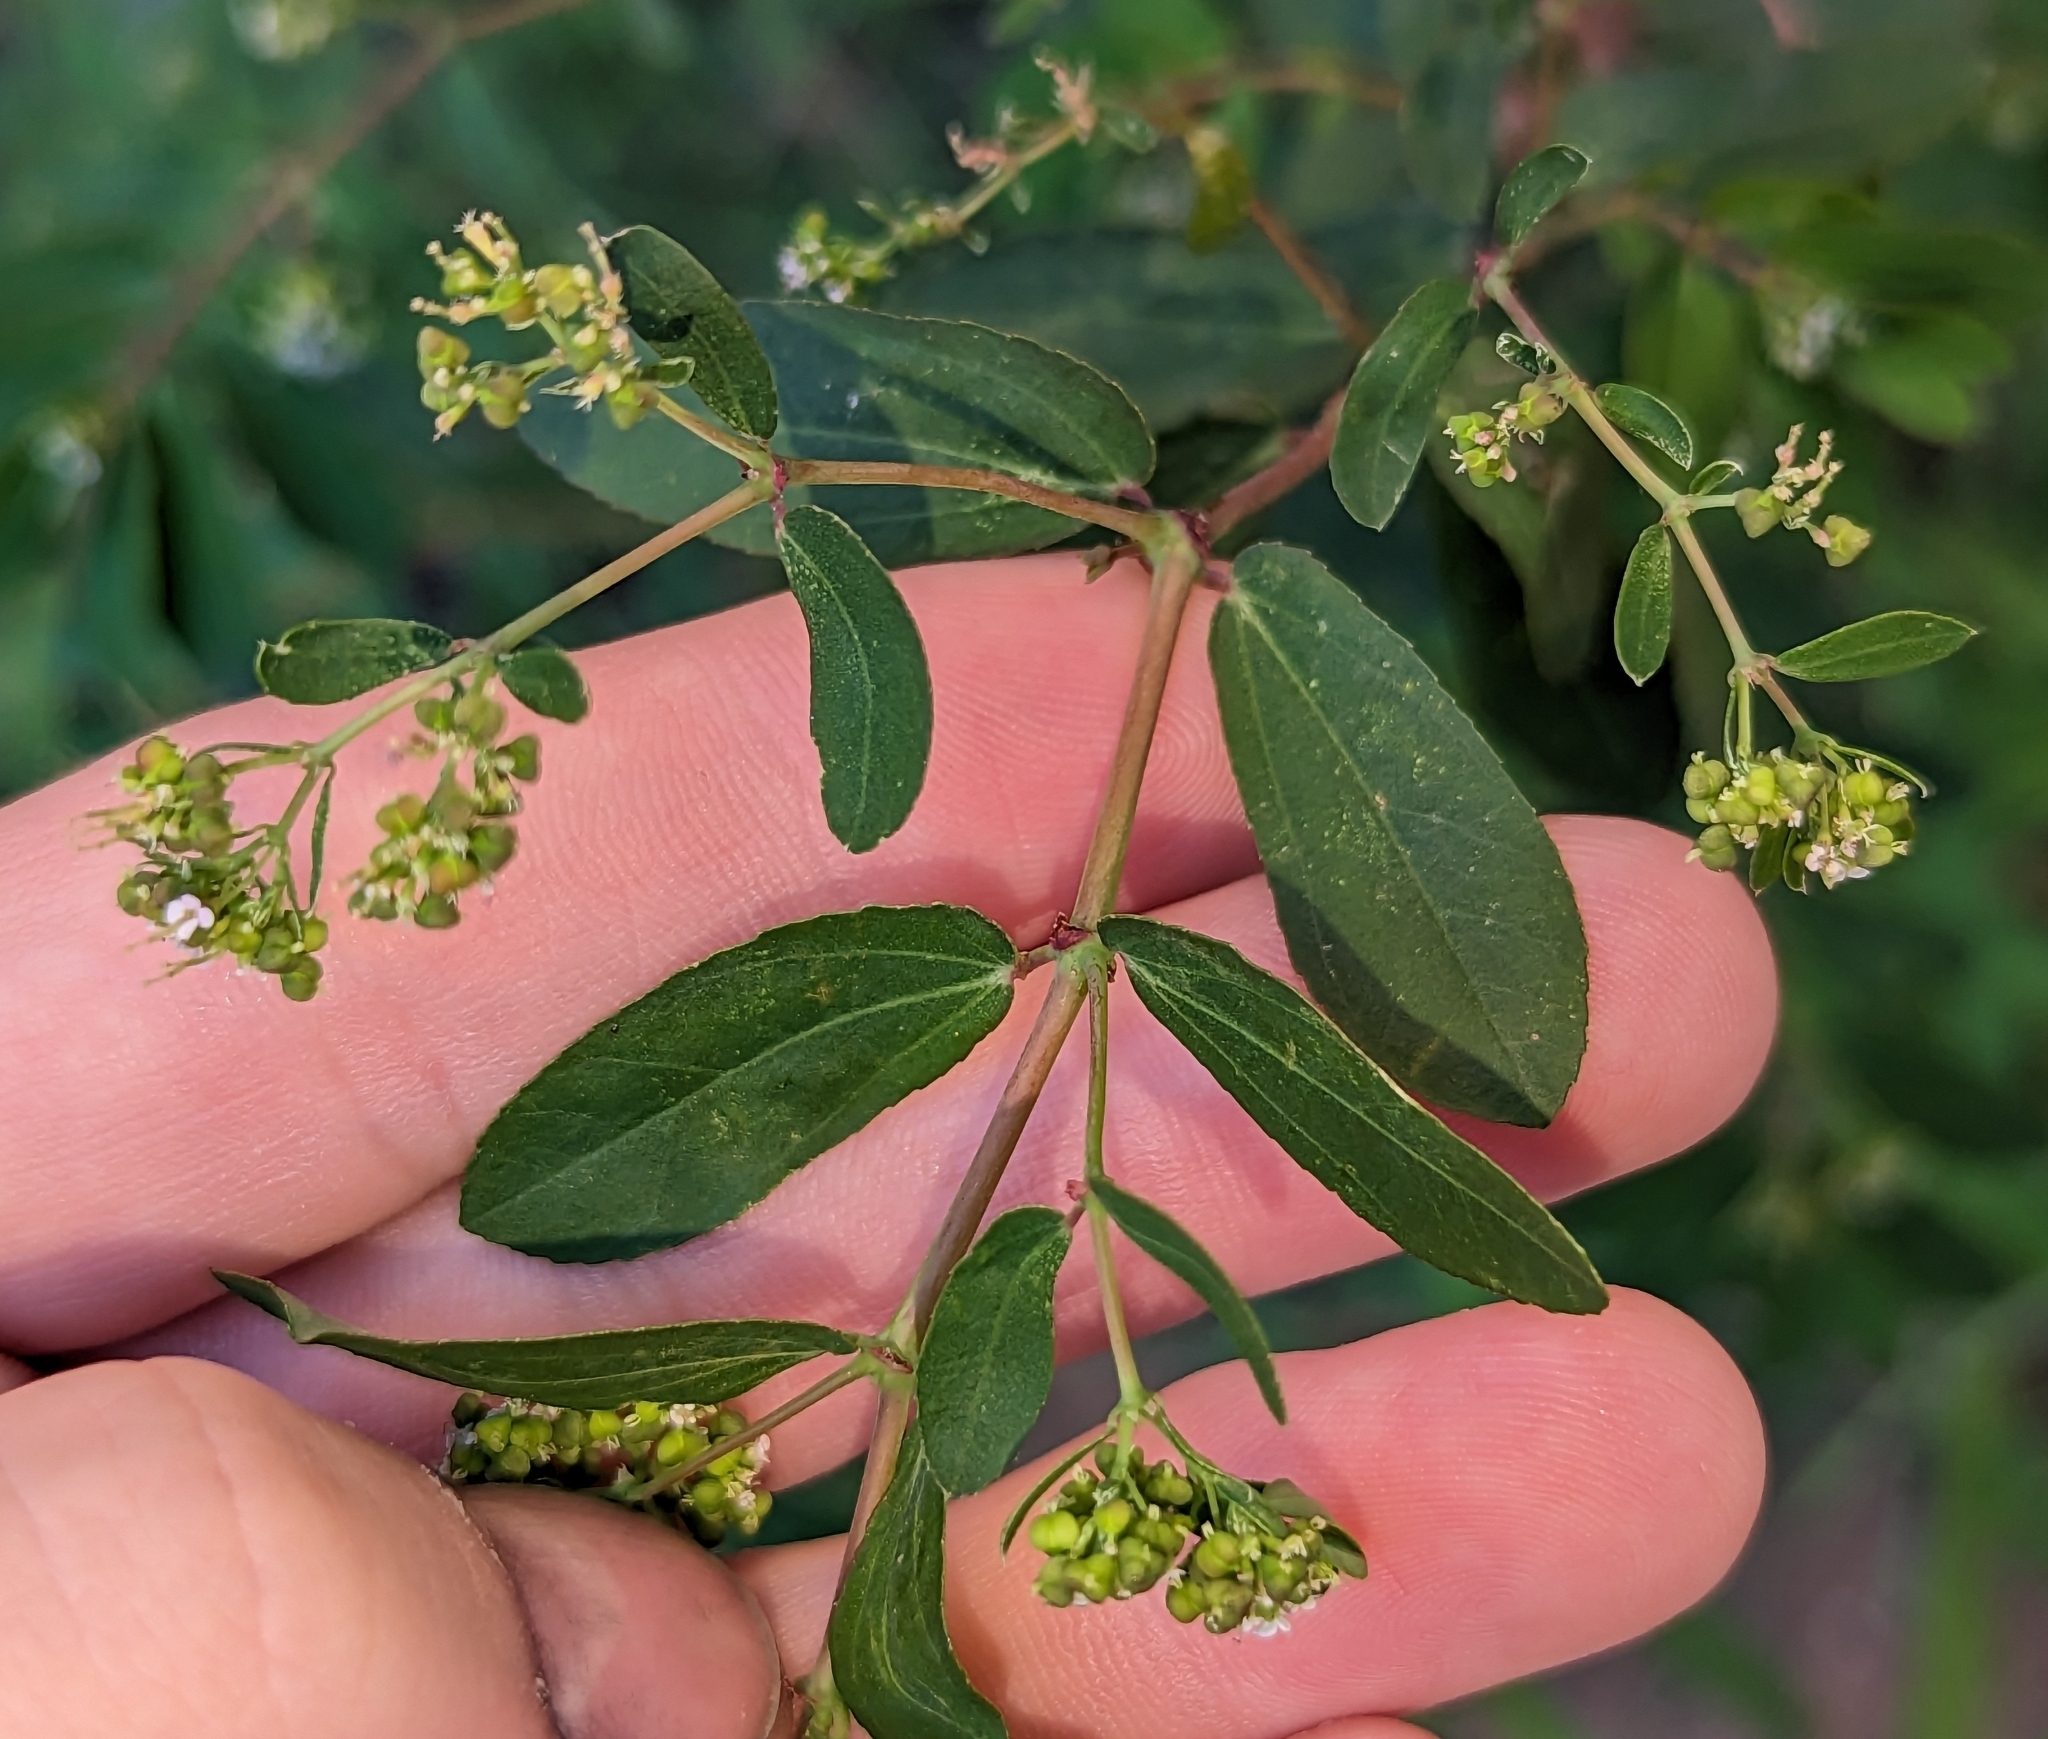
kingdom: Plantae
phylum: Tracheophyta
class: Magnoliopsida
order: Malpighiales
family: Euphorbiaceae
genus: Euphorbia
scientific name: Euphorbia hypericifolia
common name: Graceful sandmat
